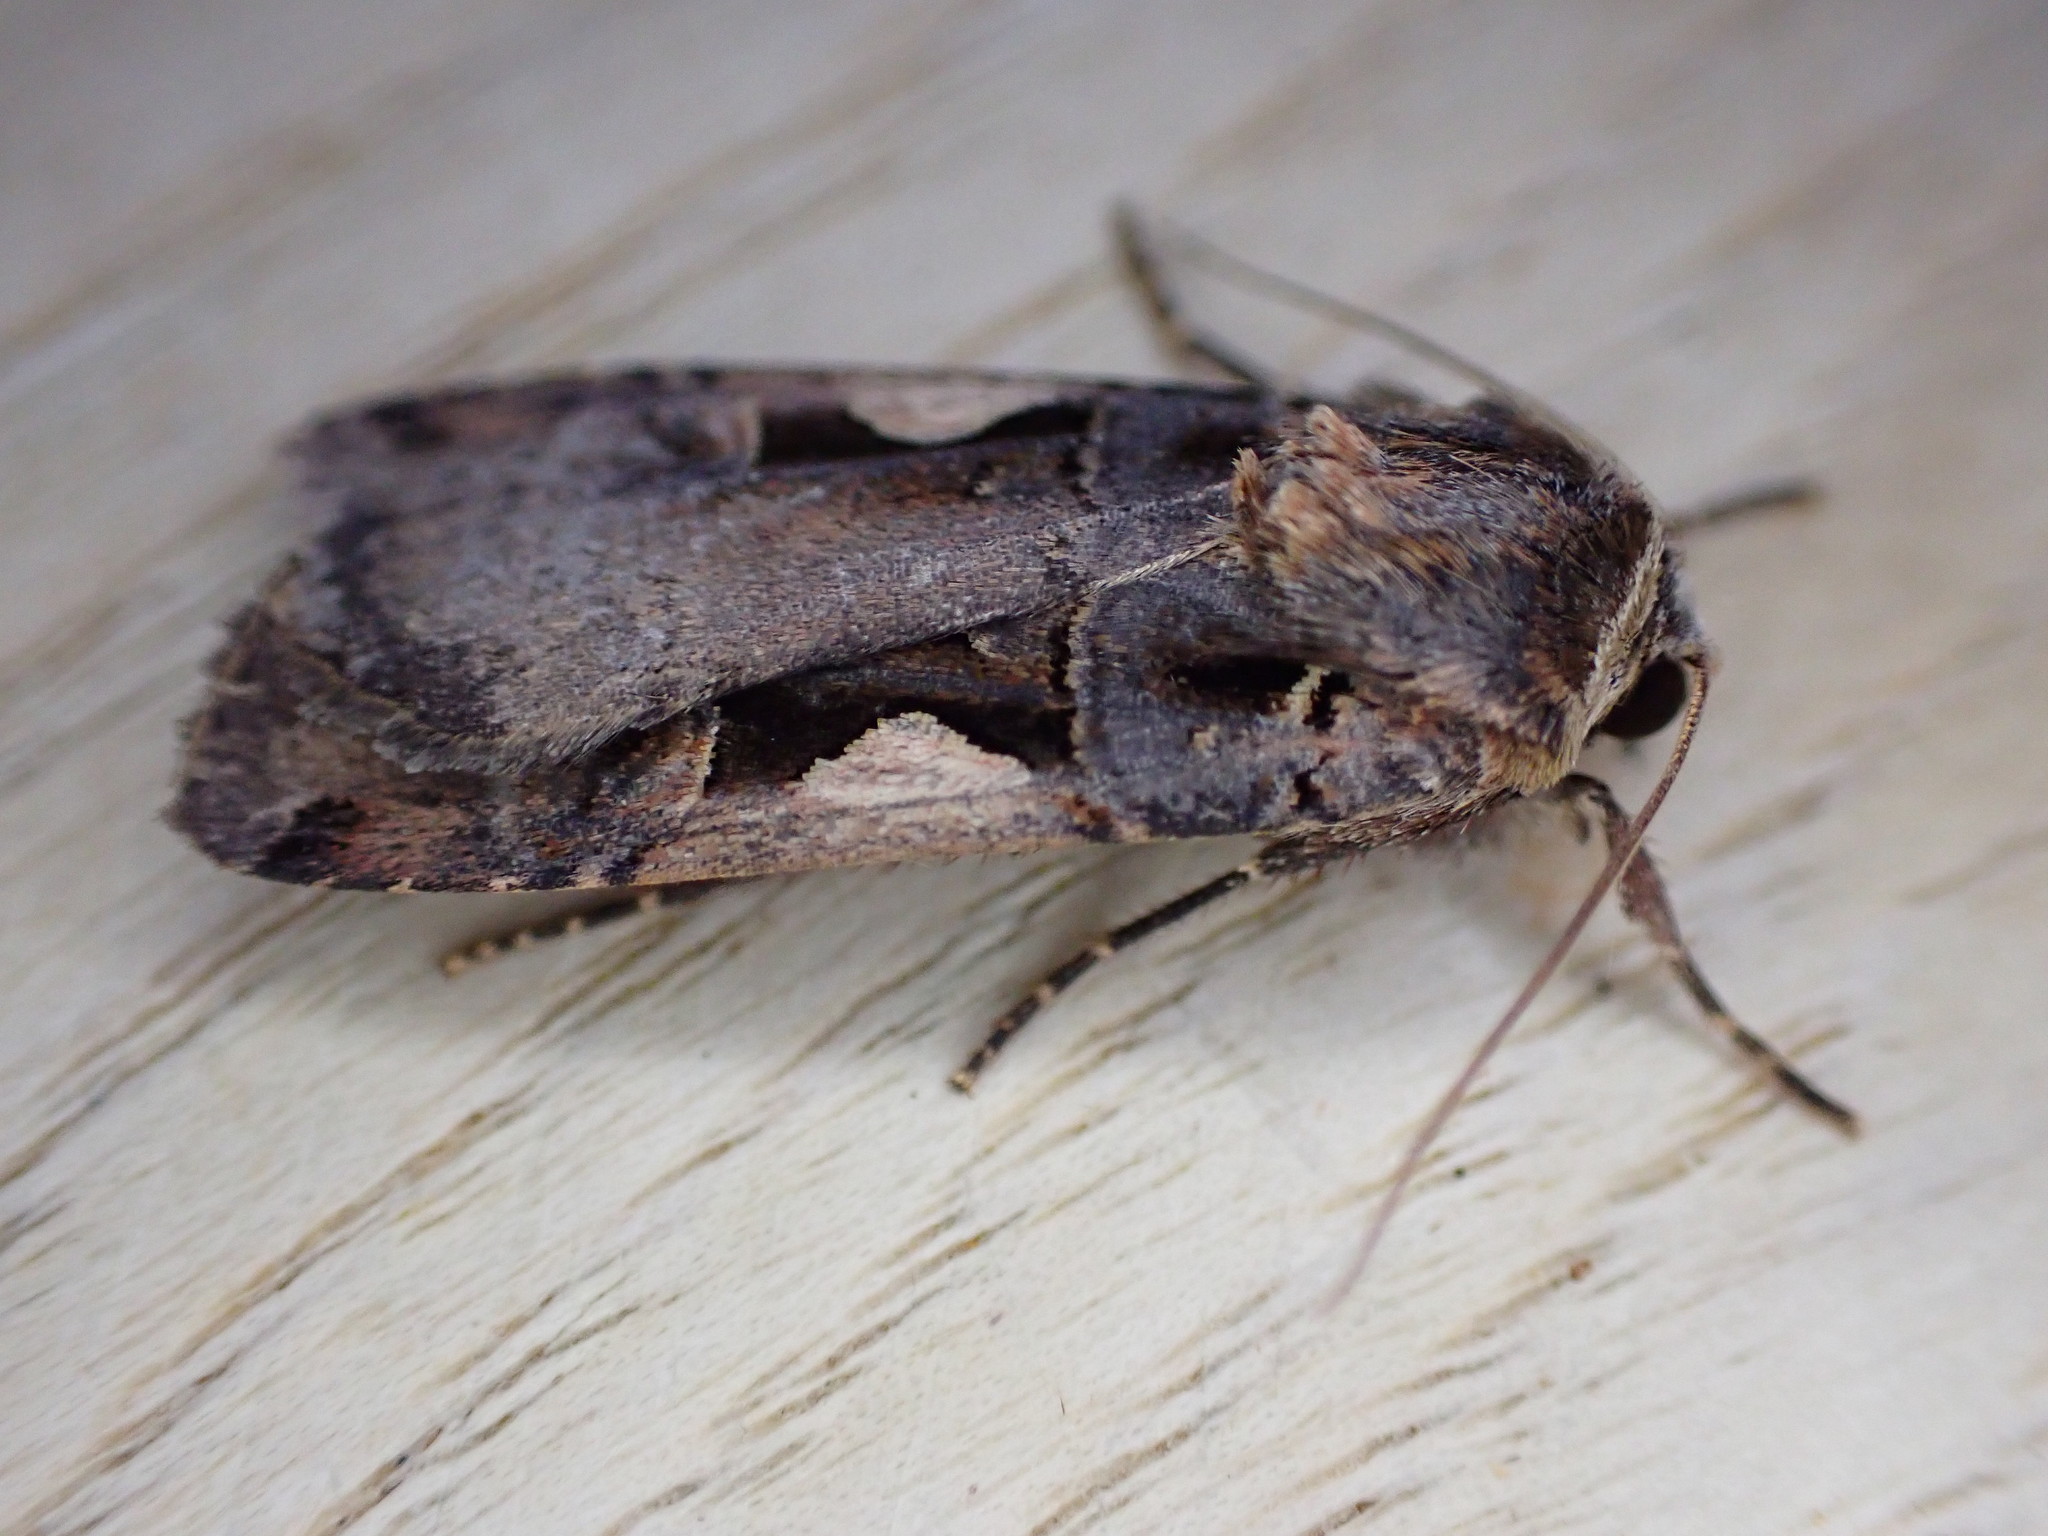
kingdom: Animalia
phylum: Arthropoda
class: Insecta
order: Lepidoptera
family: Noctuidae
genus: Xestia
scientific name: Xestia c-nigrum
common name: Setaceous hebrew character
